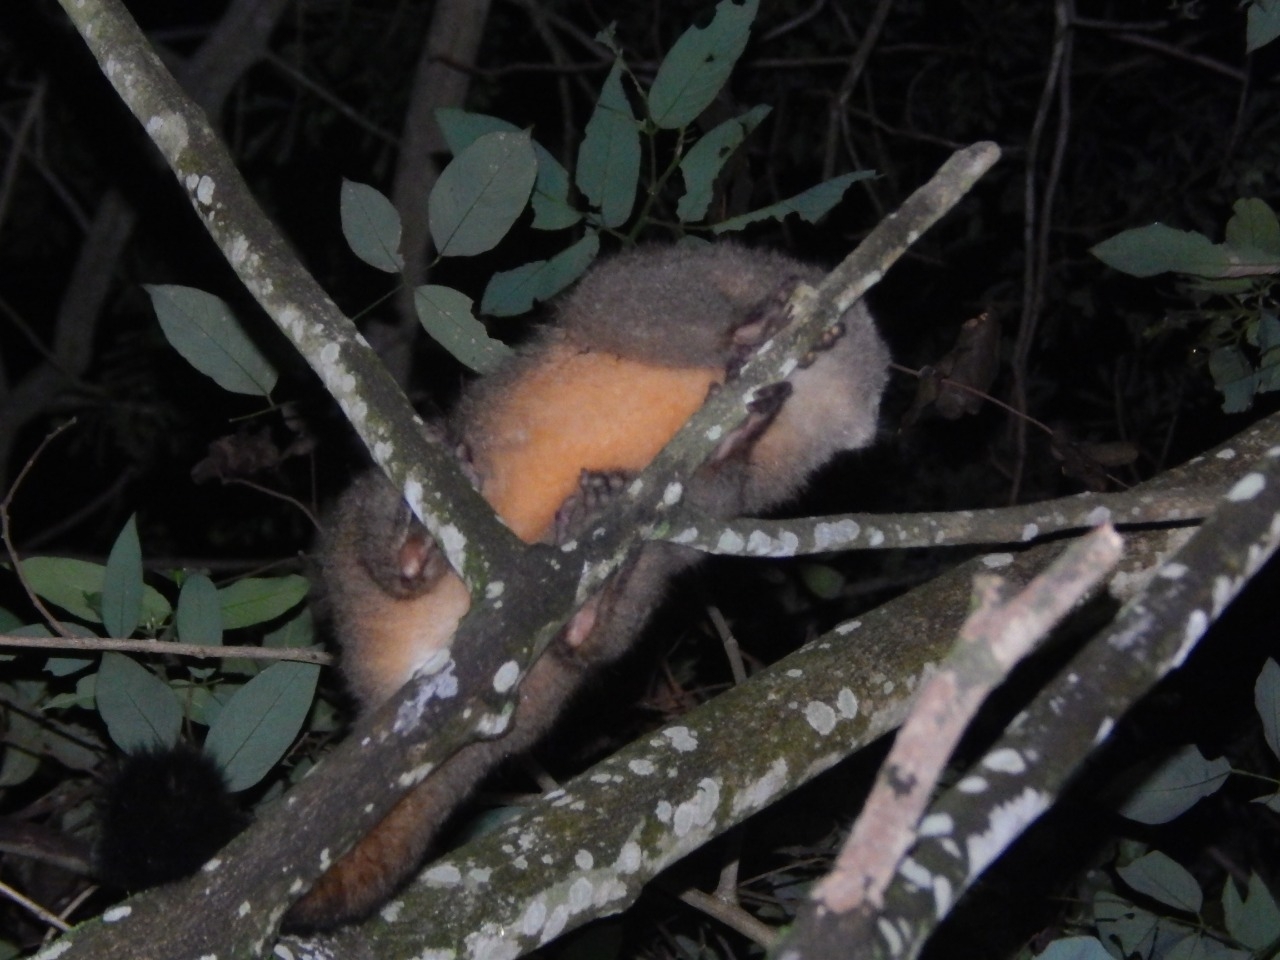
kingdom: Animalia
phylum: Chordata
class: Mammalia
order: Primates
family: Aotidae
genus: Aotus
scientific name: Aotus lemurinus
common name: Gray-bellied night monkey
